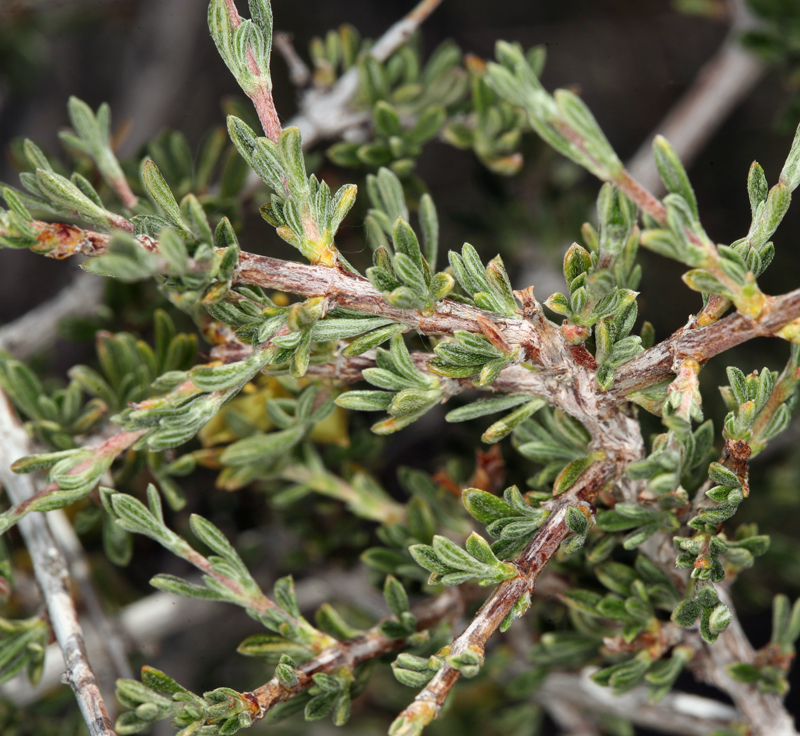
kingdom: Plantae
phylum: Tracheophyta
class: Magnoliopsida
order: Rosales
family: Rosaceae
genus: Coleogyne
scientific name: Coleogyne ramosissima
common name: Blackbrush
